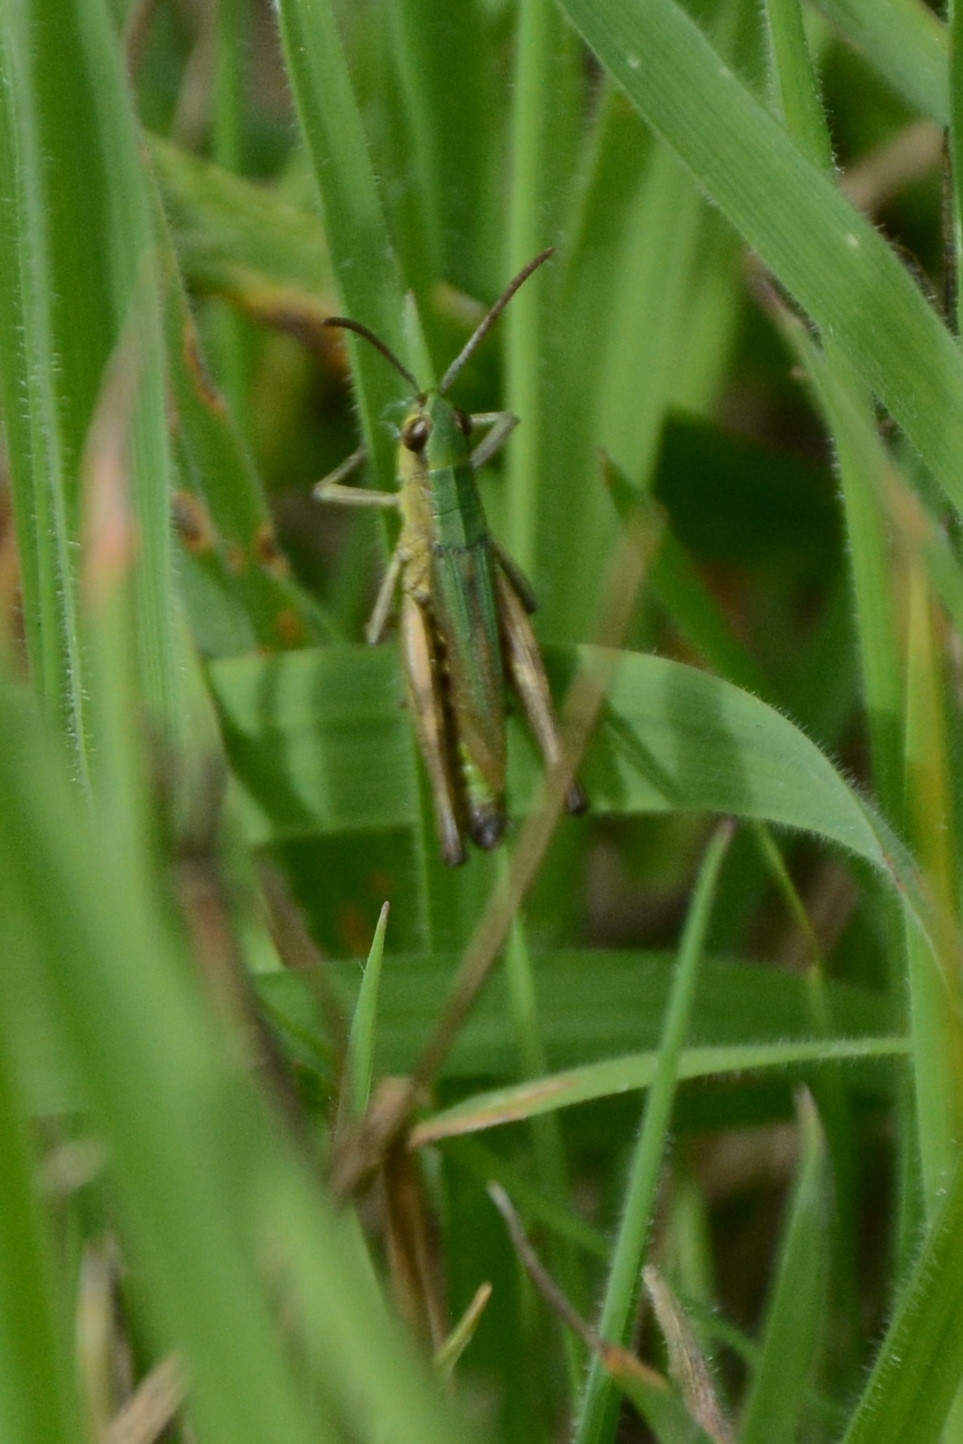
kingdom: Animalia
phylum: Arthropoda
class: Insecta
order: Orthoptera
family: Acrididae
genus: Pseudochorthippus
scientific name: Pseudochorthippus parallelus
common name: Meadow grasshopper
